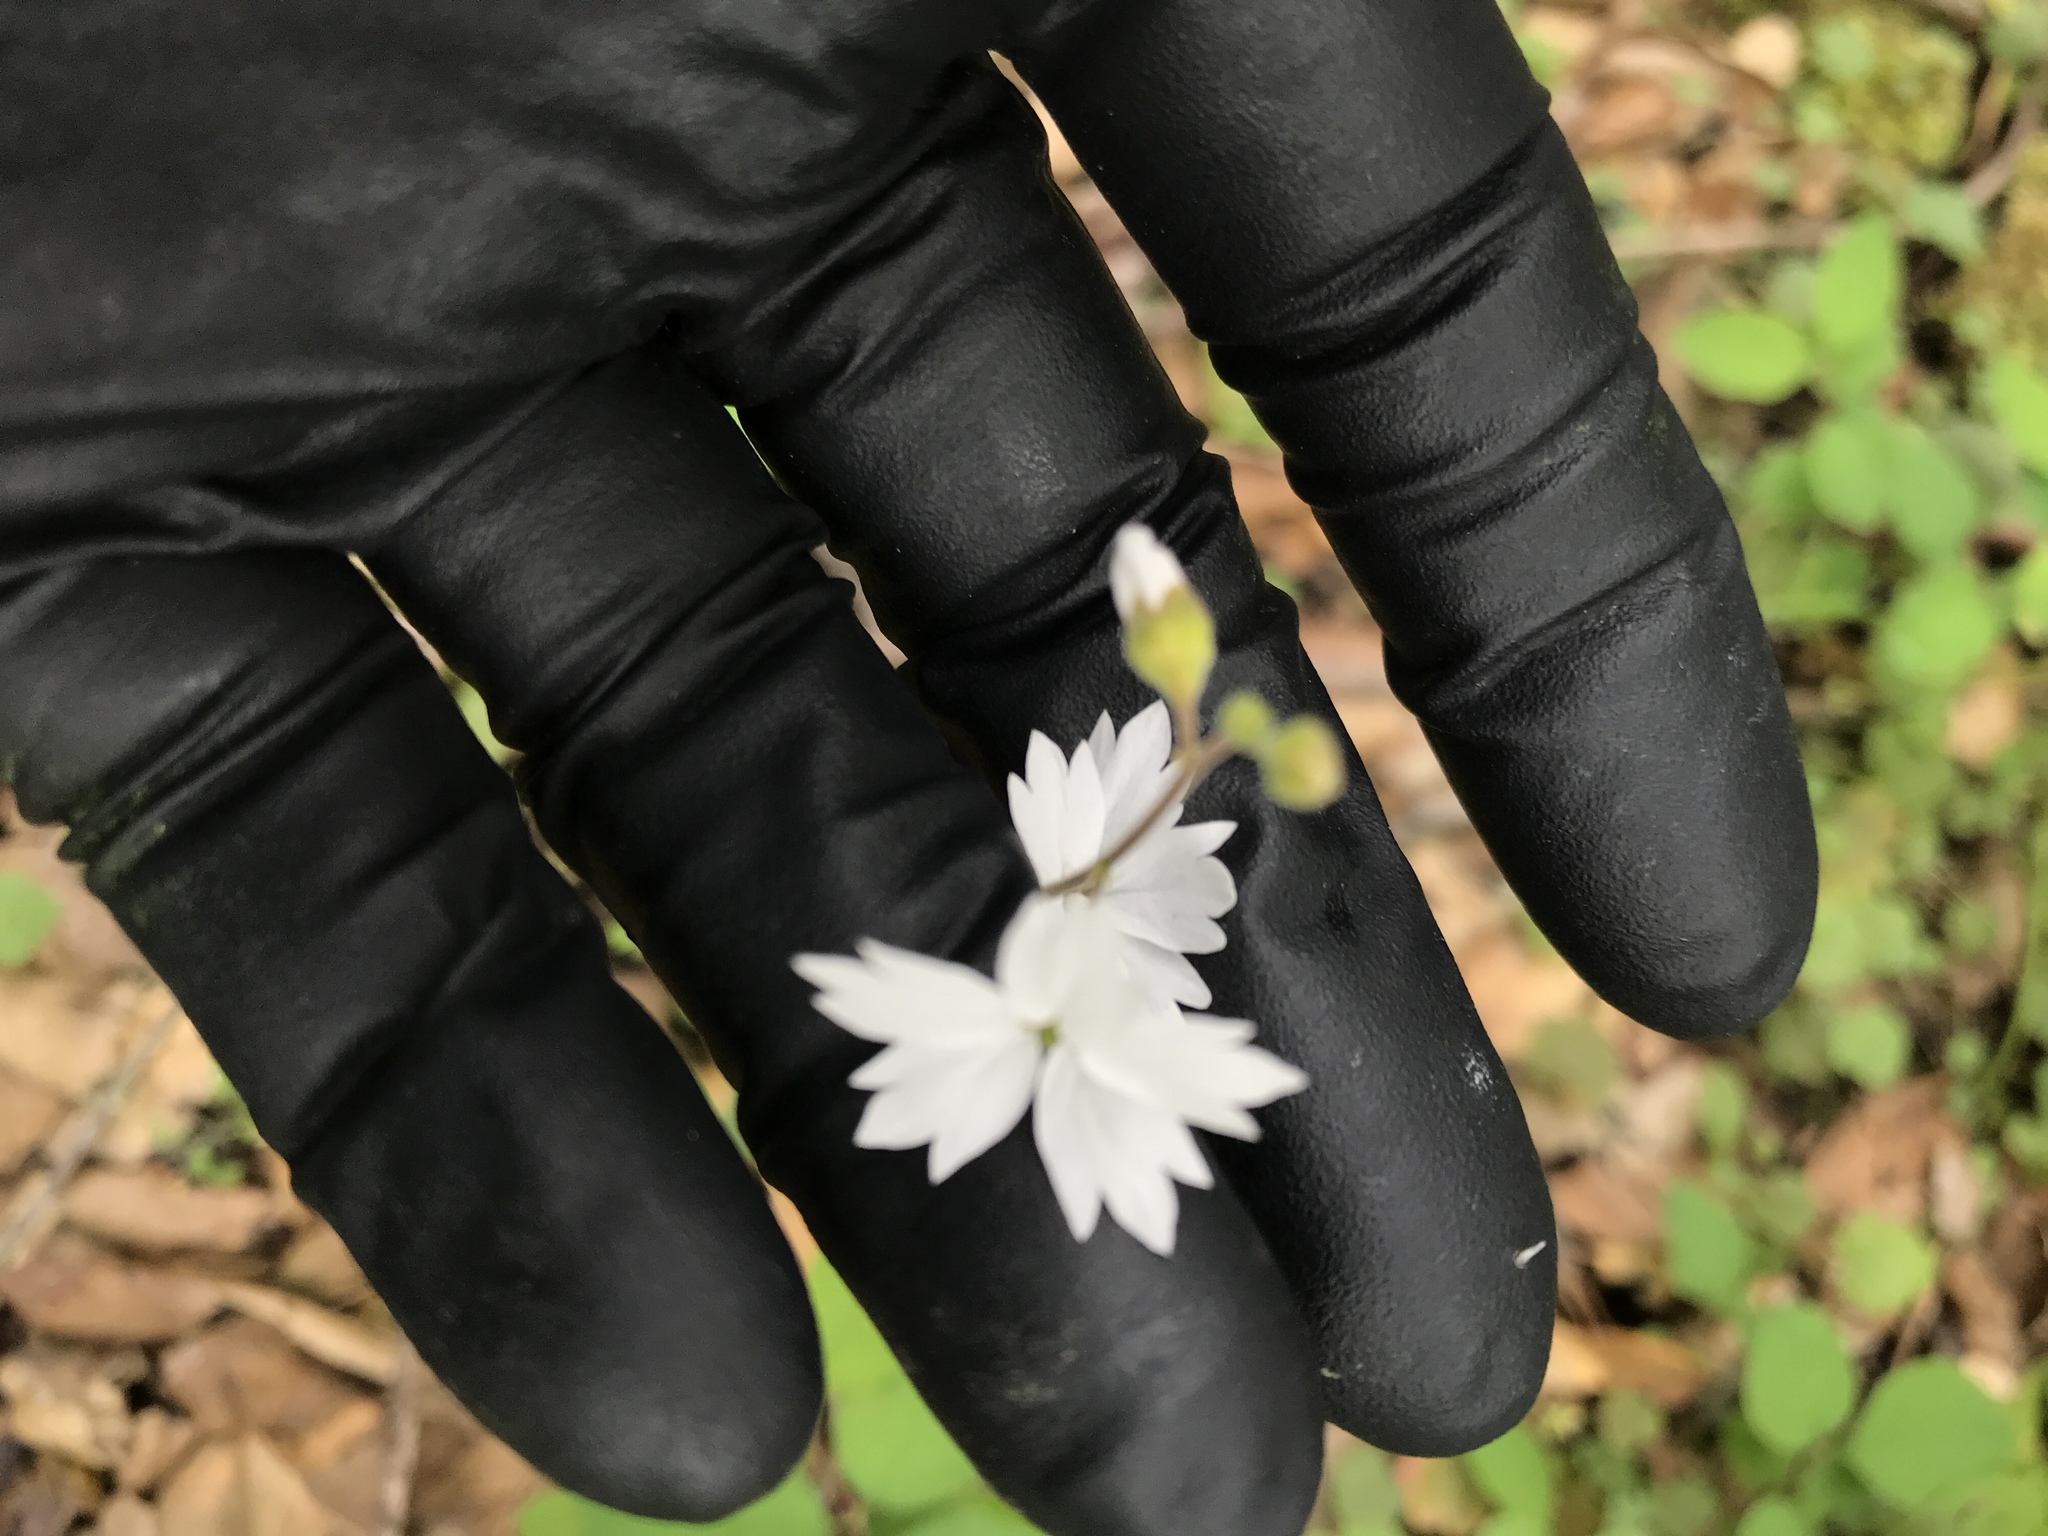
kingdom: Plantae
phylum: Tracheophyta
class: Magnoliopsida
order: Saxifragales
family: Saxifragaceae
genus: Lithophragma
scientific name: Lithophragma affine
